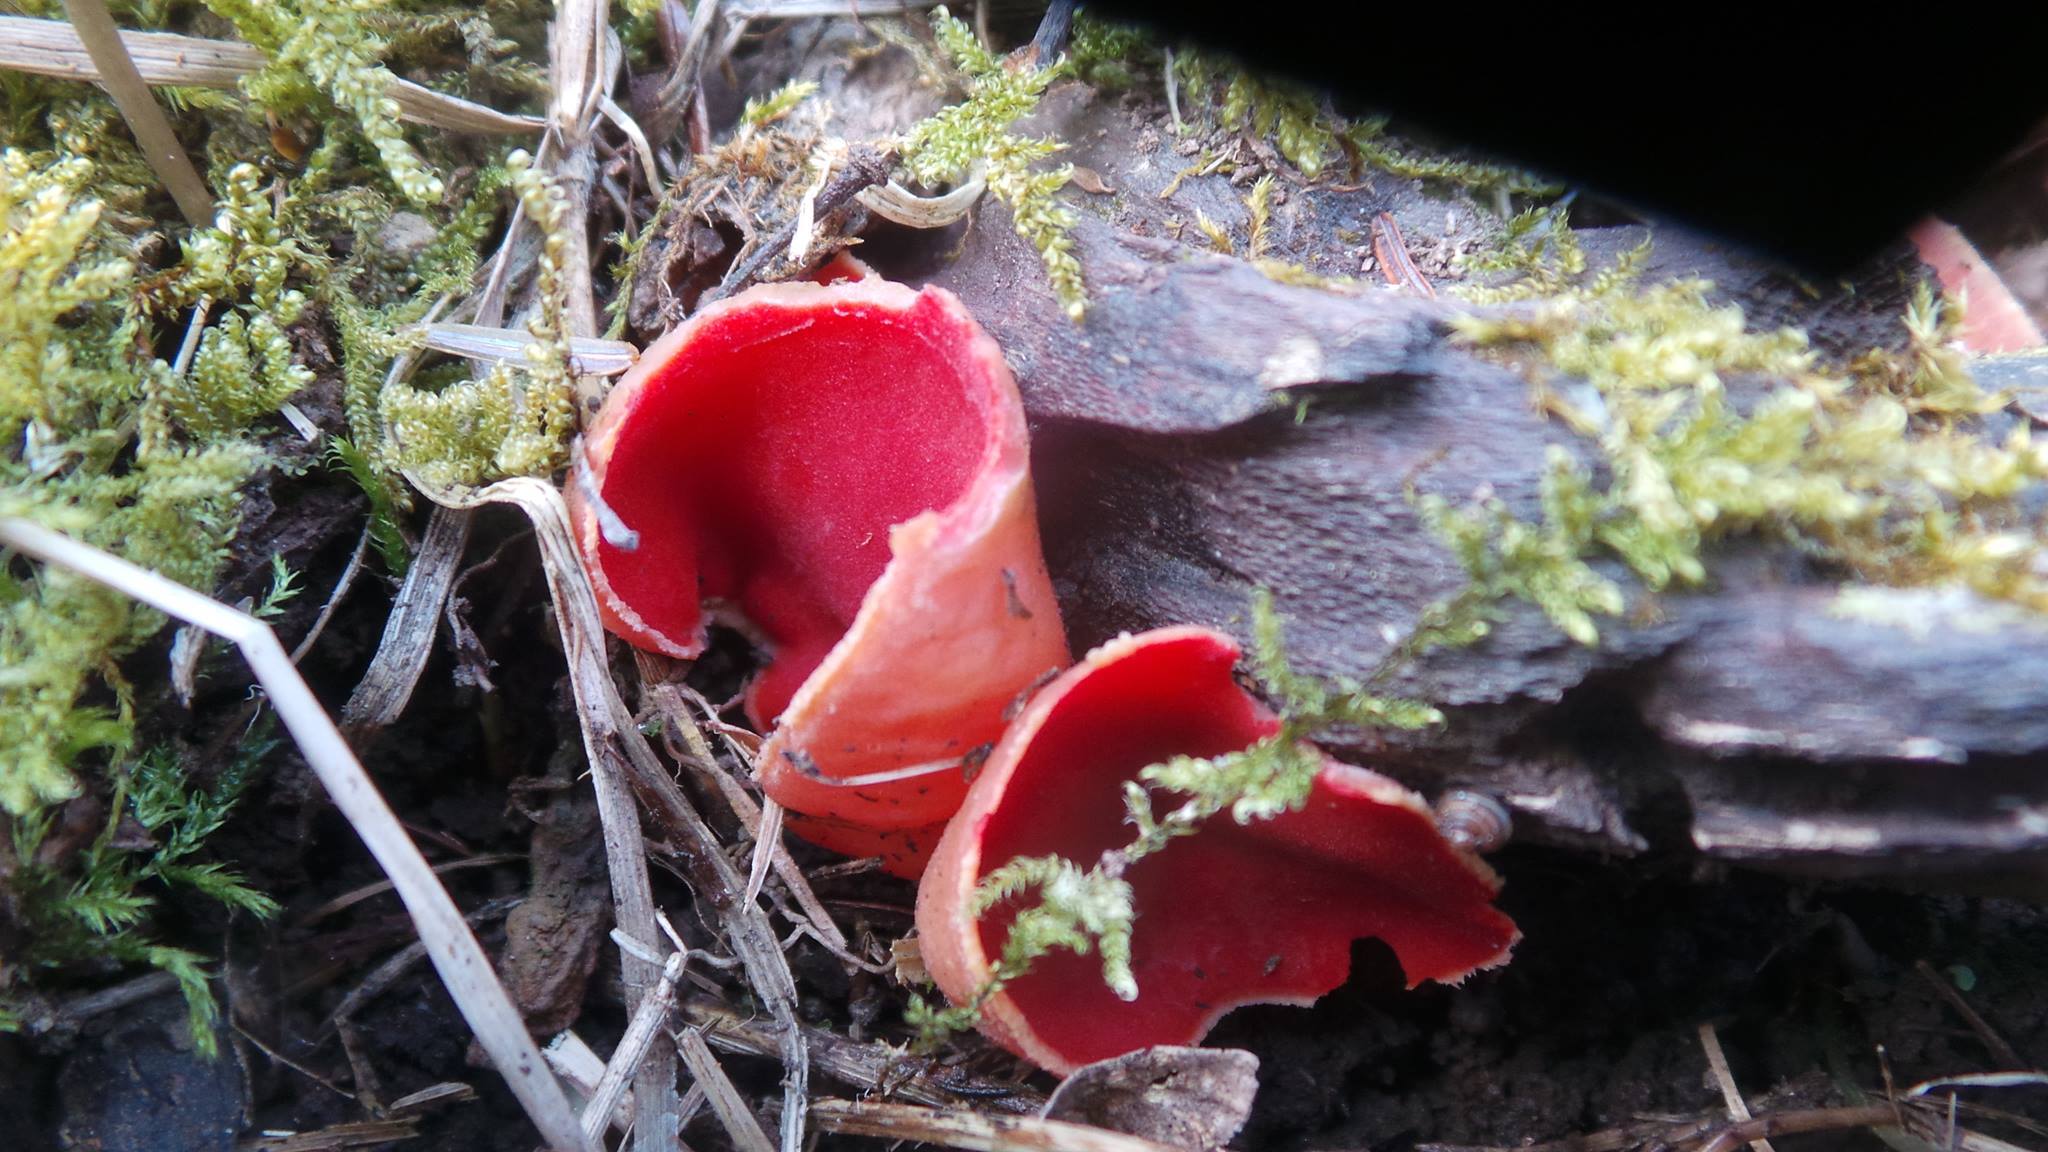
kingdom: Fungi
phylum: Ascomycota
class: Pezizomycetes
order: Pezizales
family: Sarcoscyphaceae
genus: Sarcoscypha
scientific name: Sarcoscypha austriaca
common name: Scarlet elfcup
